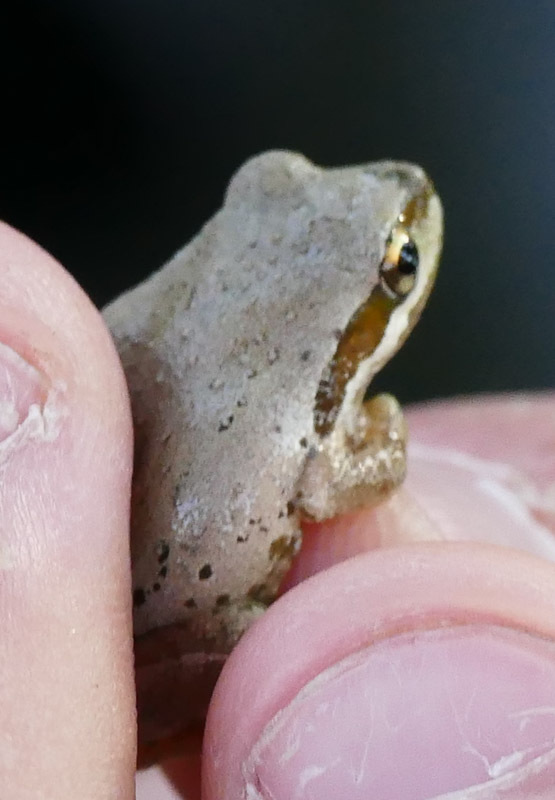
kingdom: Animalia
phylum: Chordata
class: Amphibia
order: Anura
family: Hylidae
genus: Pseudacris
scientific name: Pseudacris regilla
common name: Pacific chorus frog
